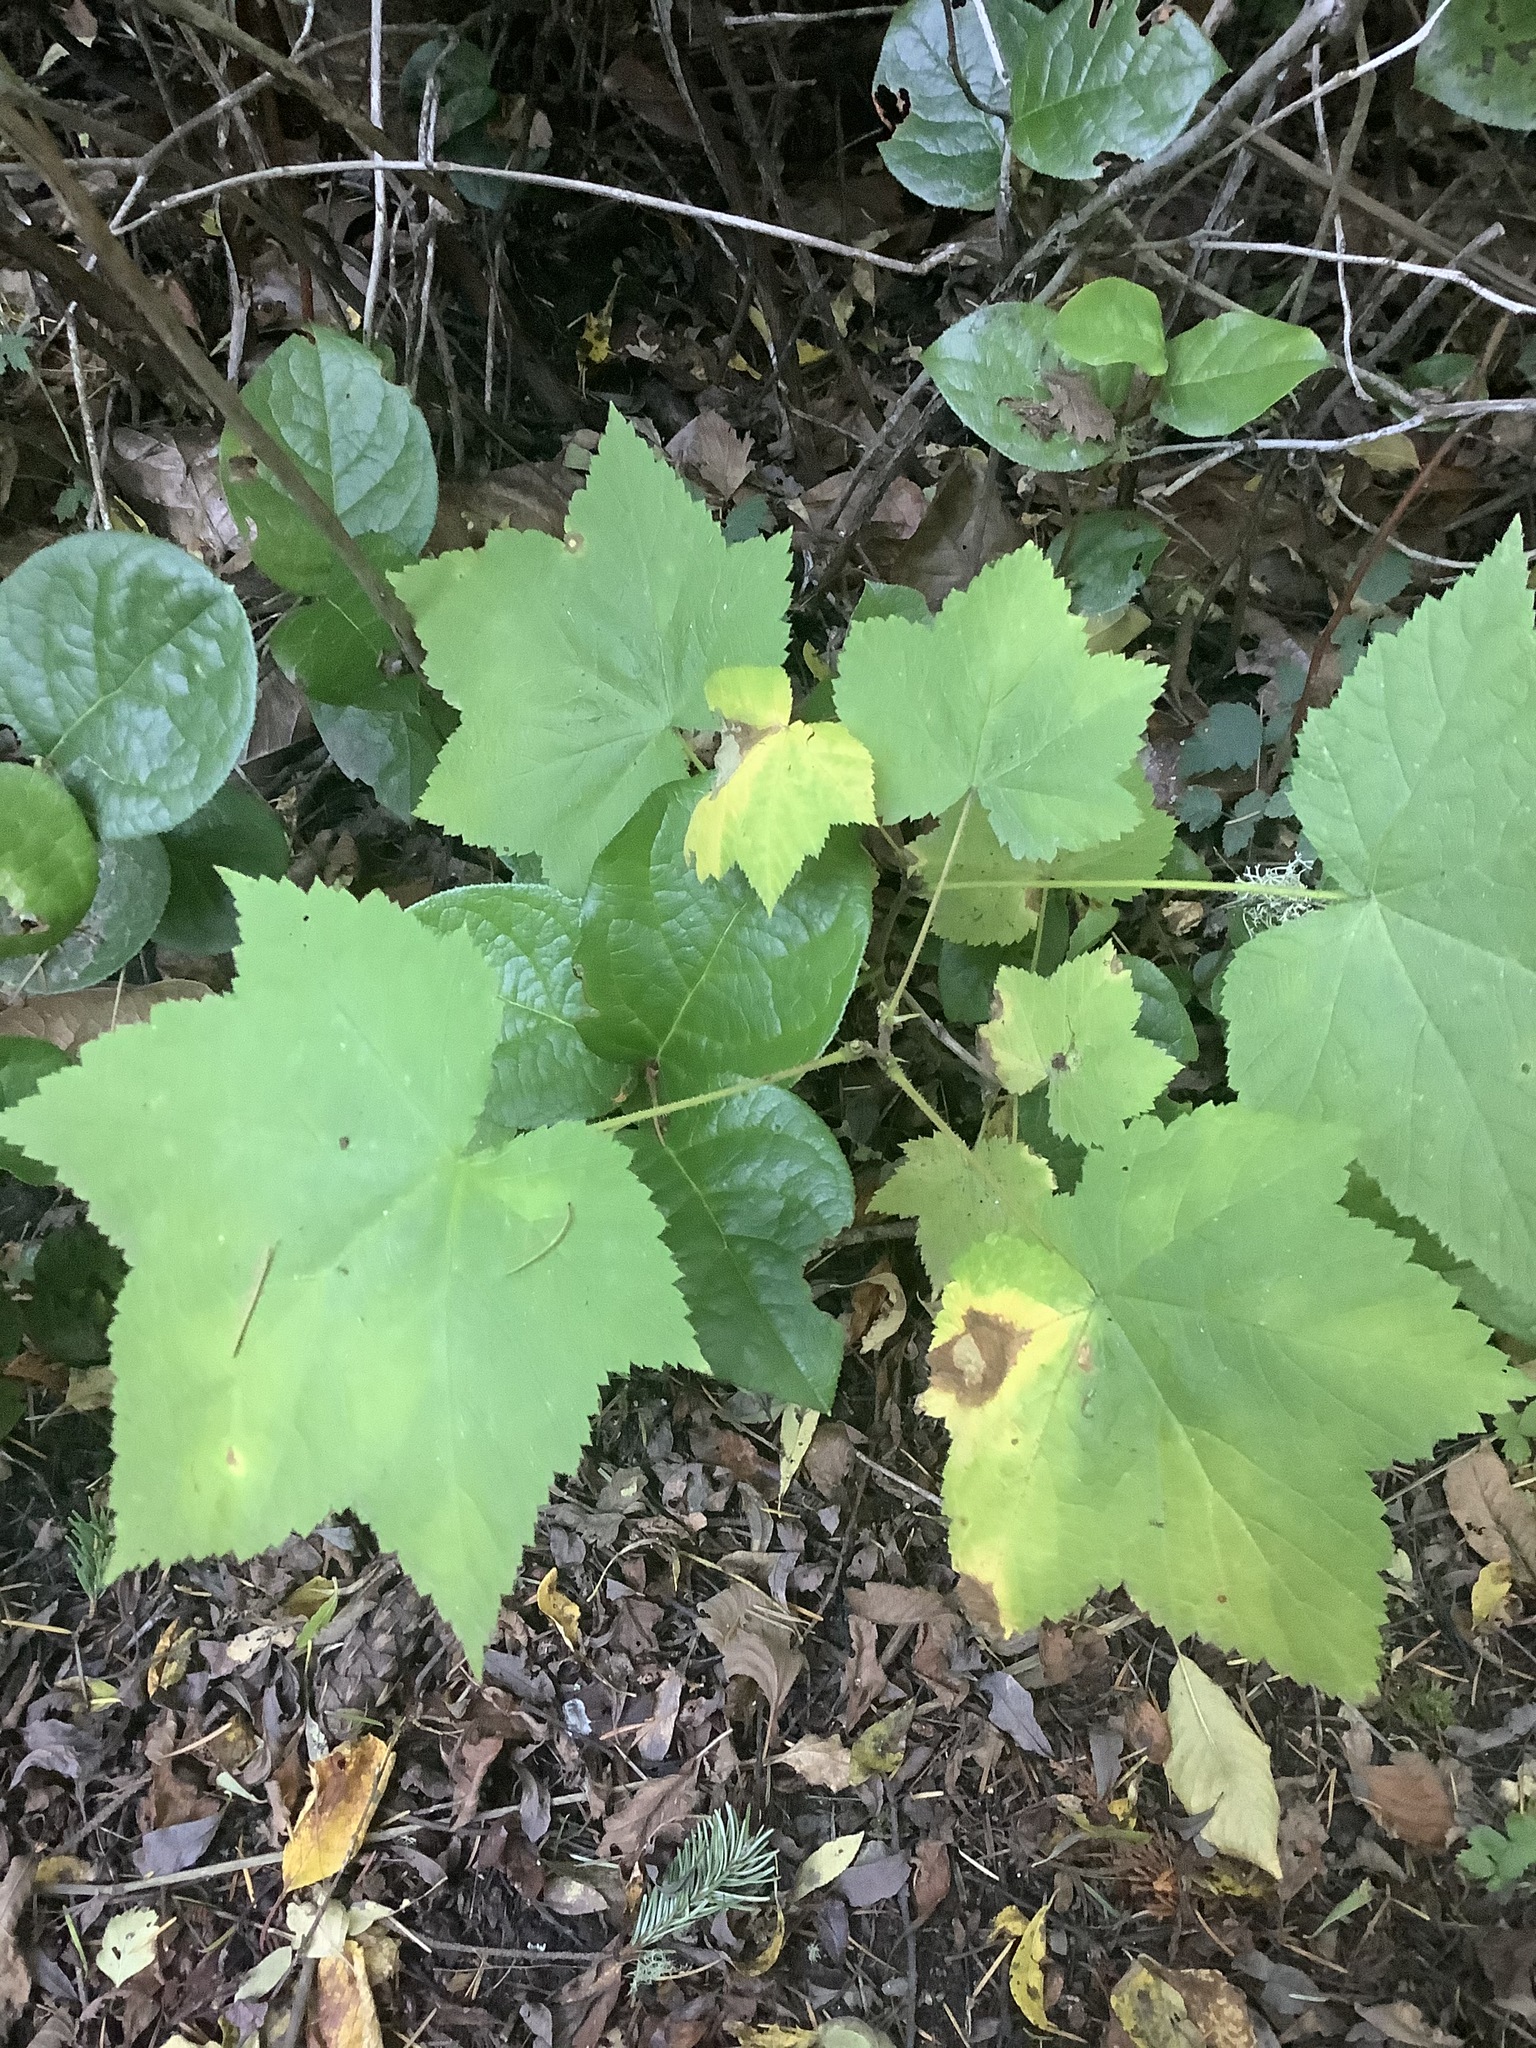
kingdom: Plantae
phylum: Tracheophyta
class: Magnoliopsida
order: Rosales
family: Rosaceae
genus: Rubus
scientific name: Rubus parviflorus
